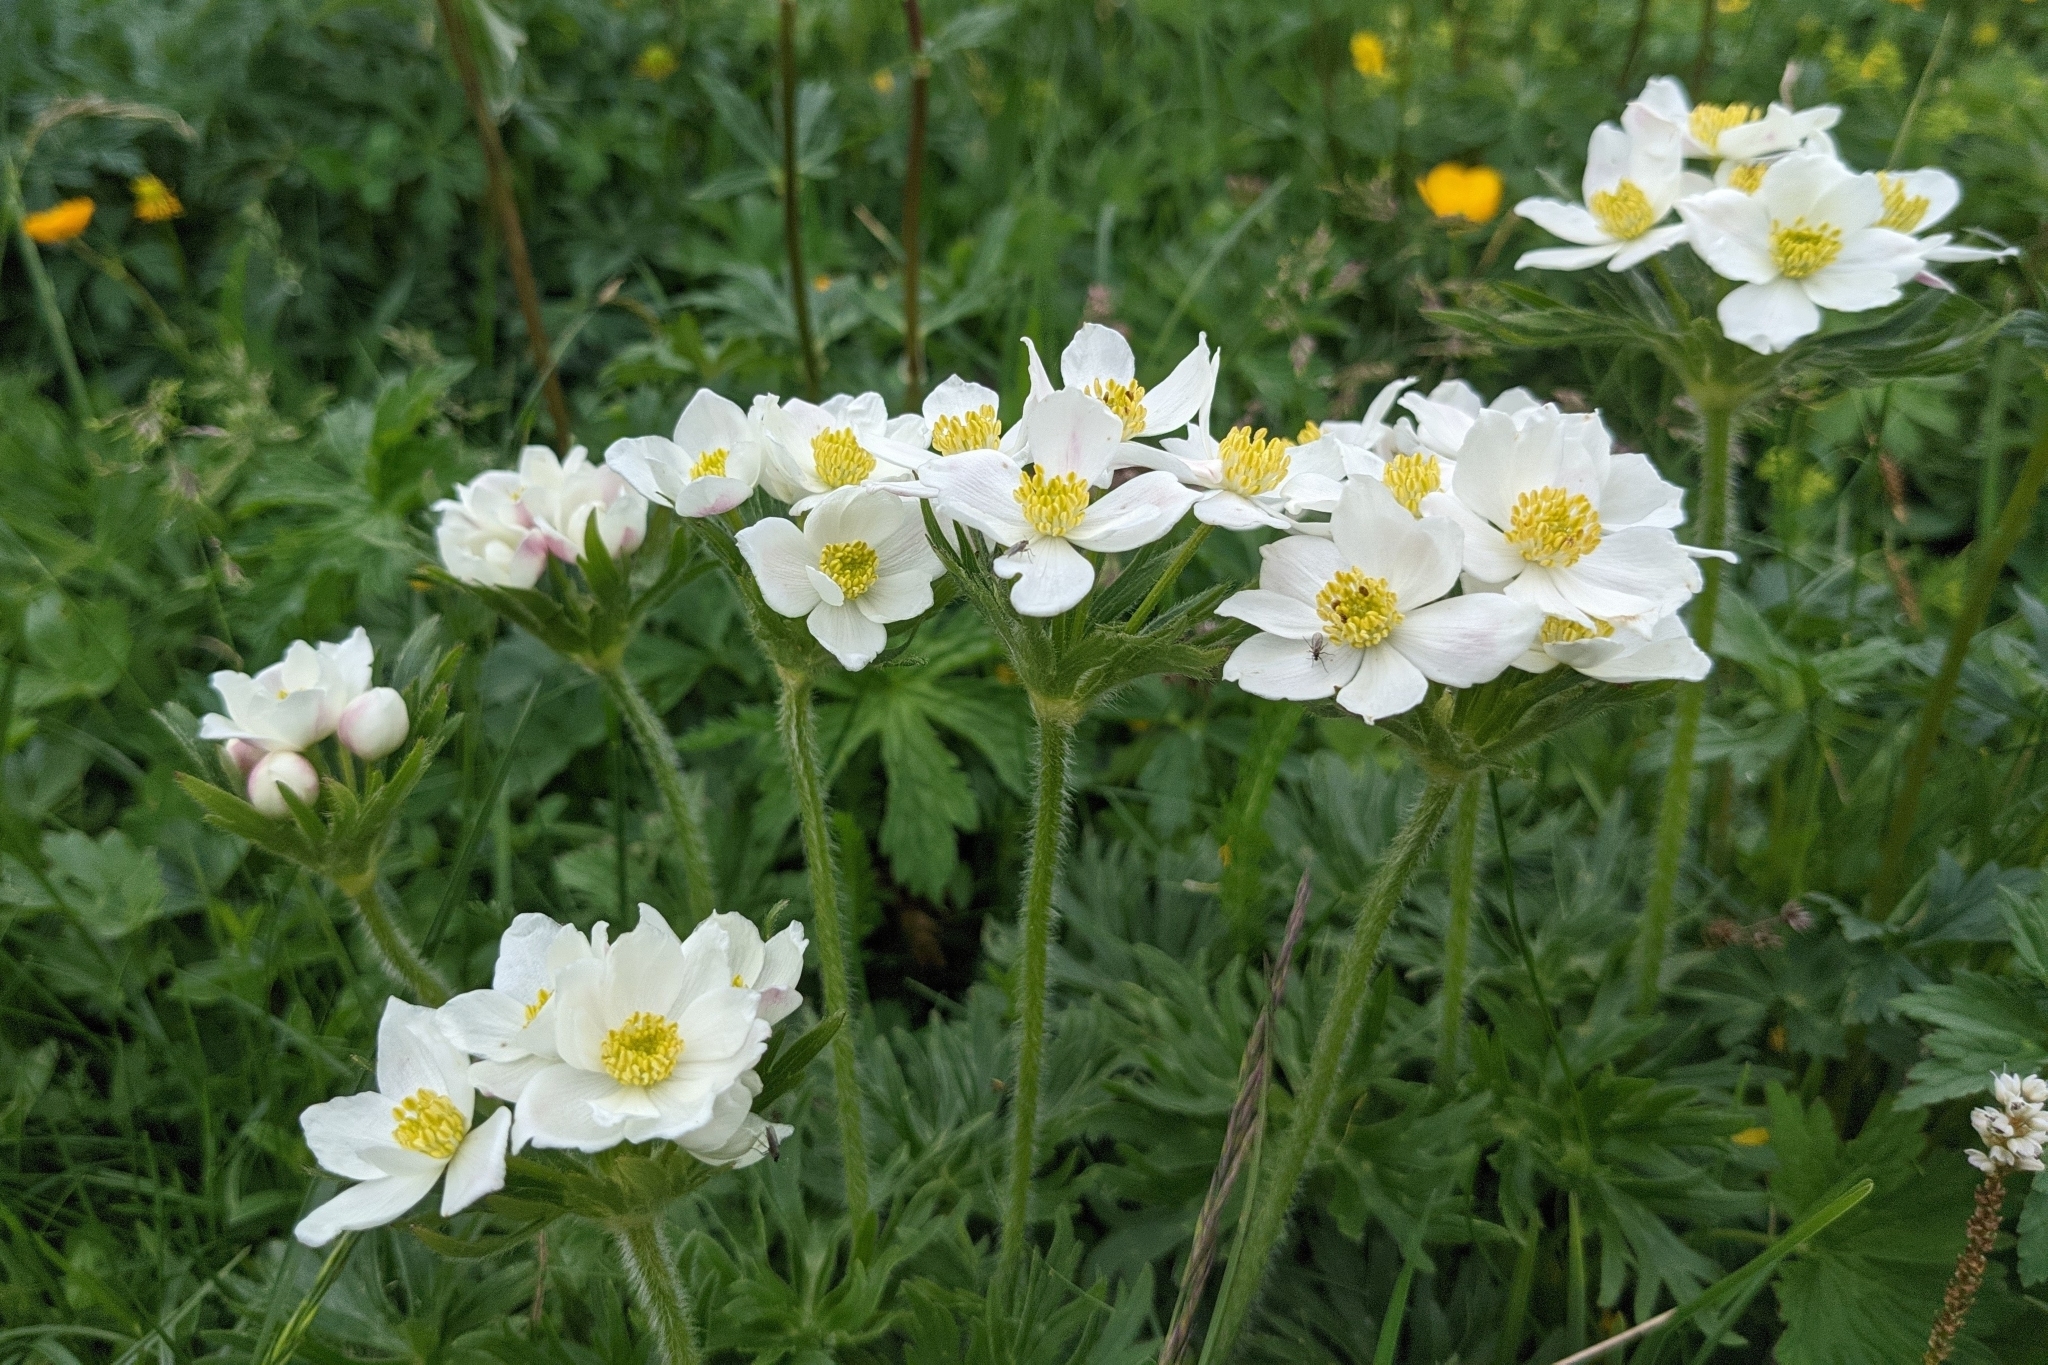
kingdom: Plantae
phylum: Tracheophyta
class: Magnoliopsida
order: Ranunculales
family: Ranunculaceae
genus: Anemonastrum
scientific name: Anemonastrum narcissiflorum
